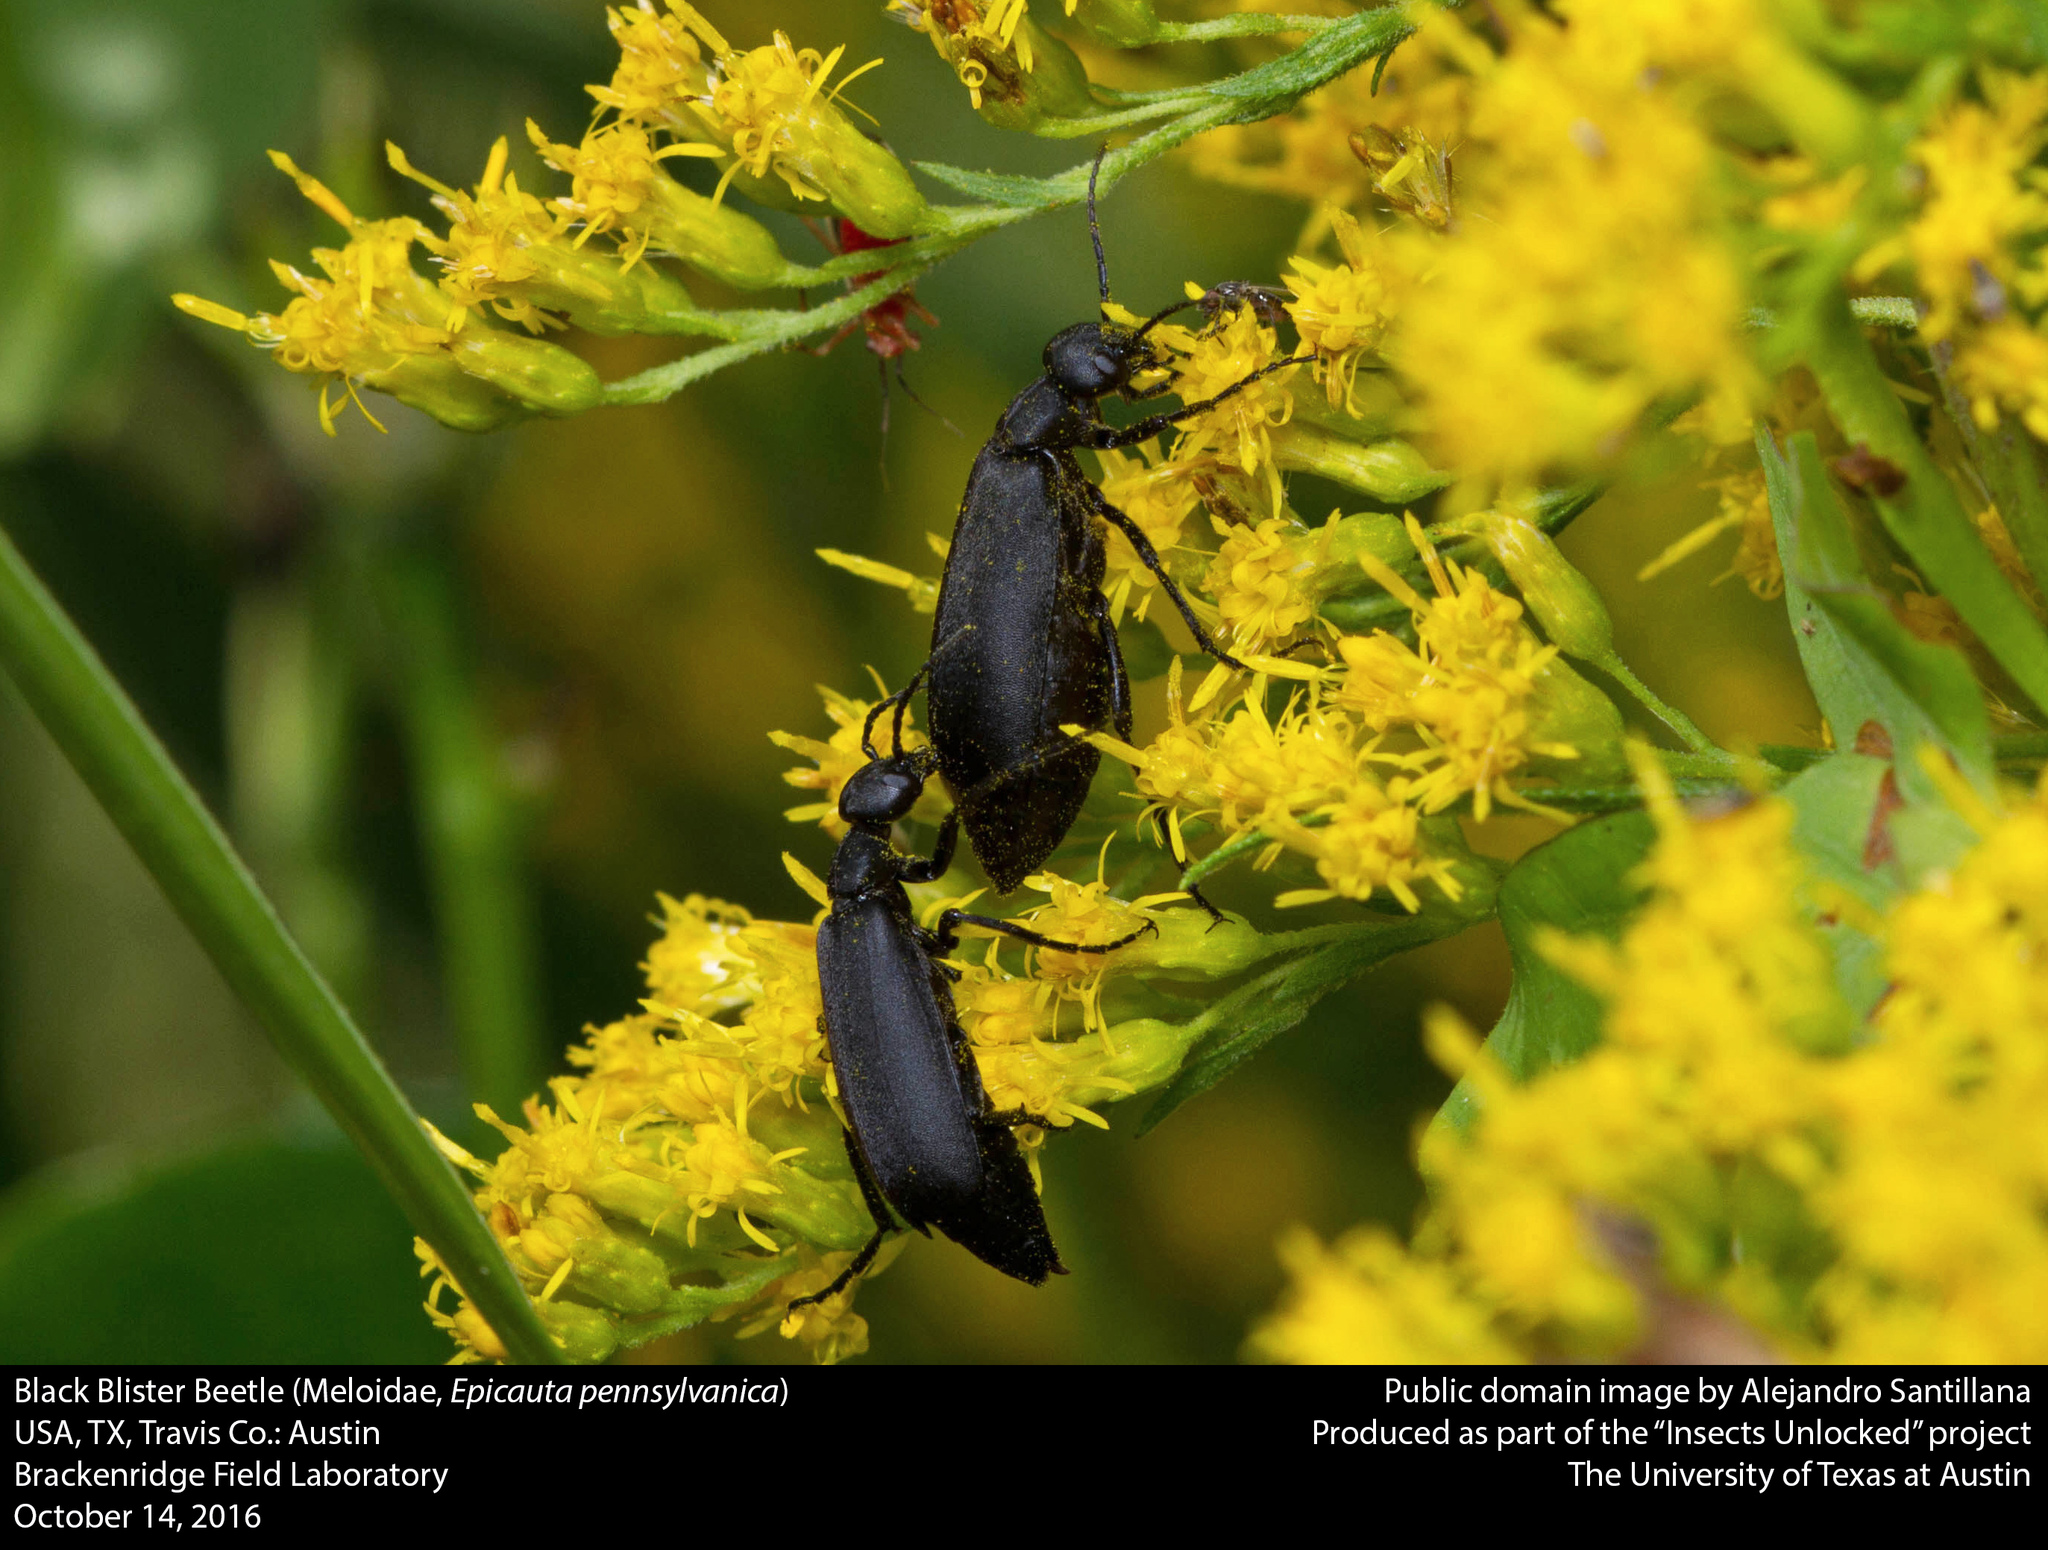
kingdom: Animalia
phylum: Arthropoda
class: Insecta
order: Coleoptera
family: Meloidae
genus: Epicauta
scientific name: Epicauta pensylvanica
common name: Black blister beetle
